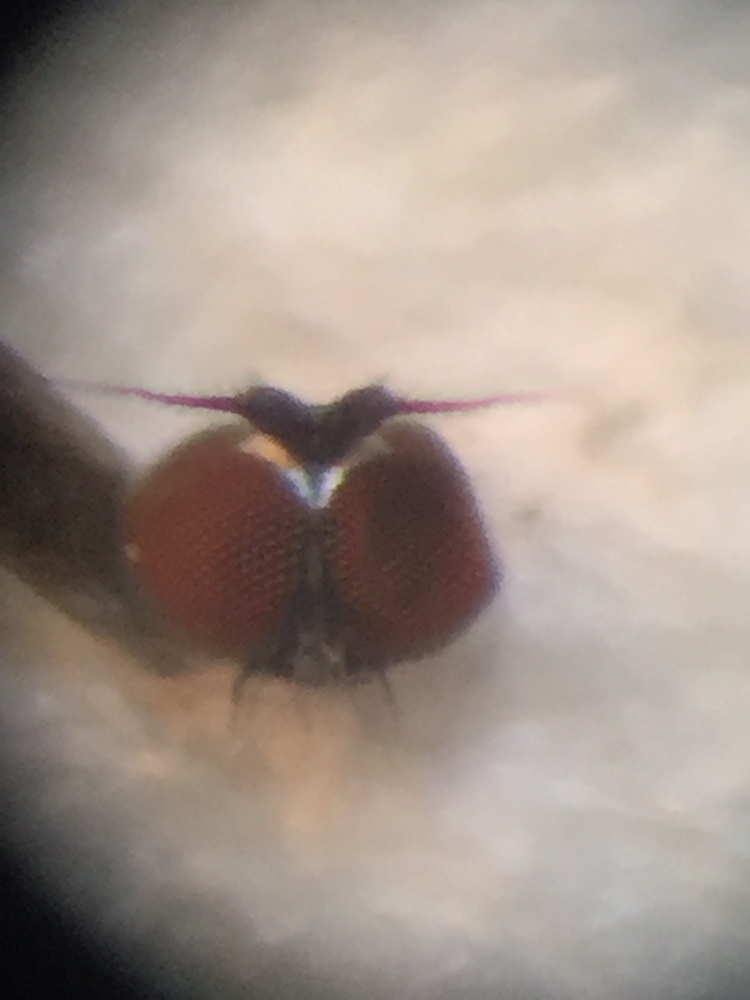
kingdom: Animalia
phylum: Arthropoda
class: Insecta
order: Diptera
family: Dolichopodidae
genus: Chimerothalassius
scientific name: Chimerothalassius marshalli
